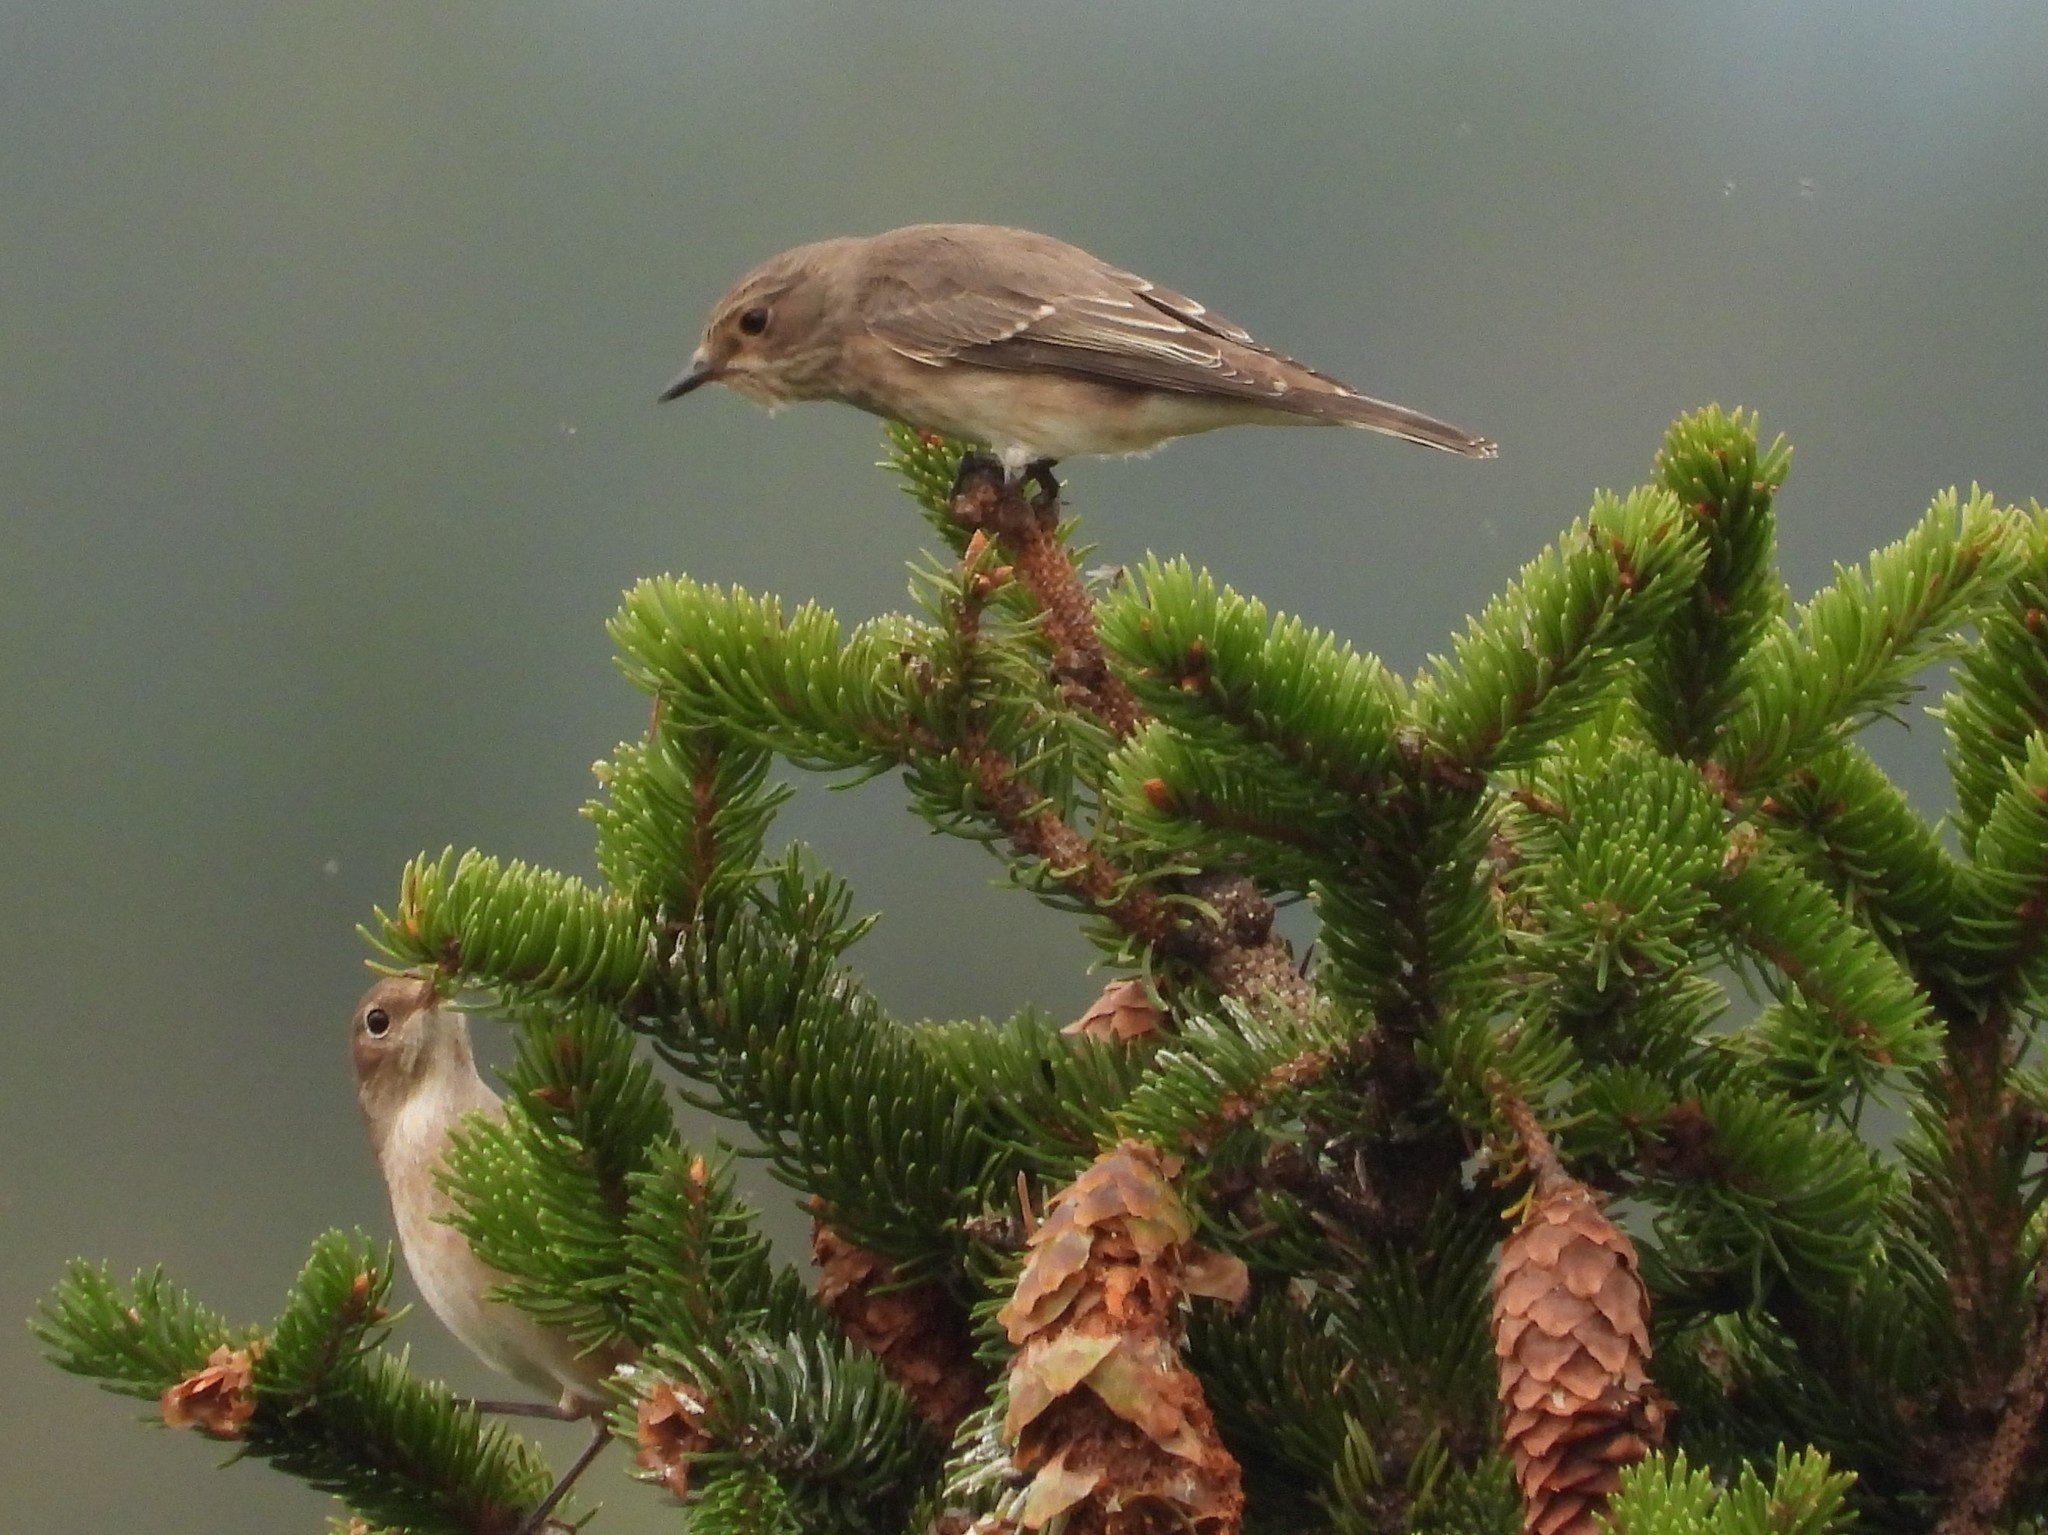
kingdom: Animalia
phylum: Chordata
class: Aves
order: Passeriformes
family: Muscicapidae
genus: Muscicapa
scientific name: Muscicapa striata
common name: Spotted flycatcher
